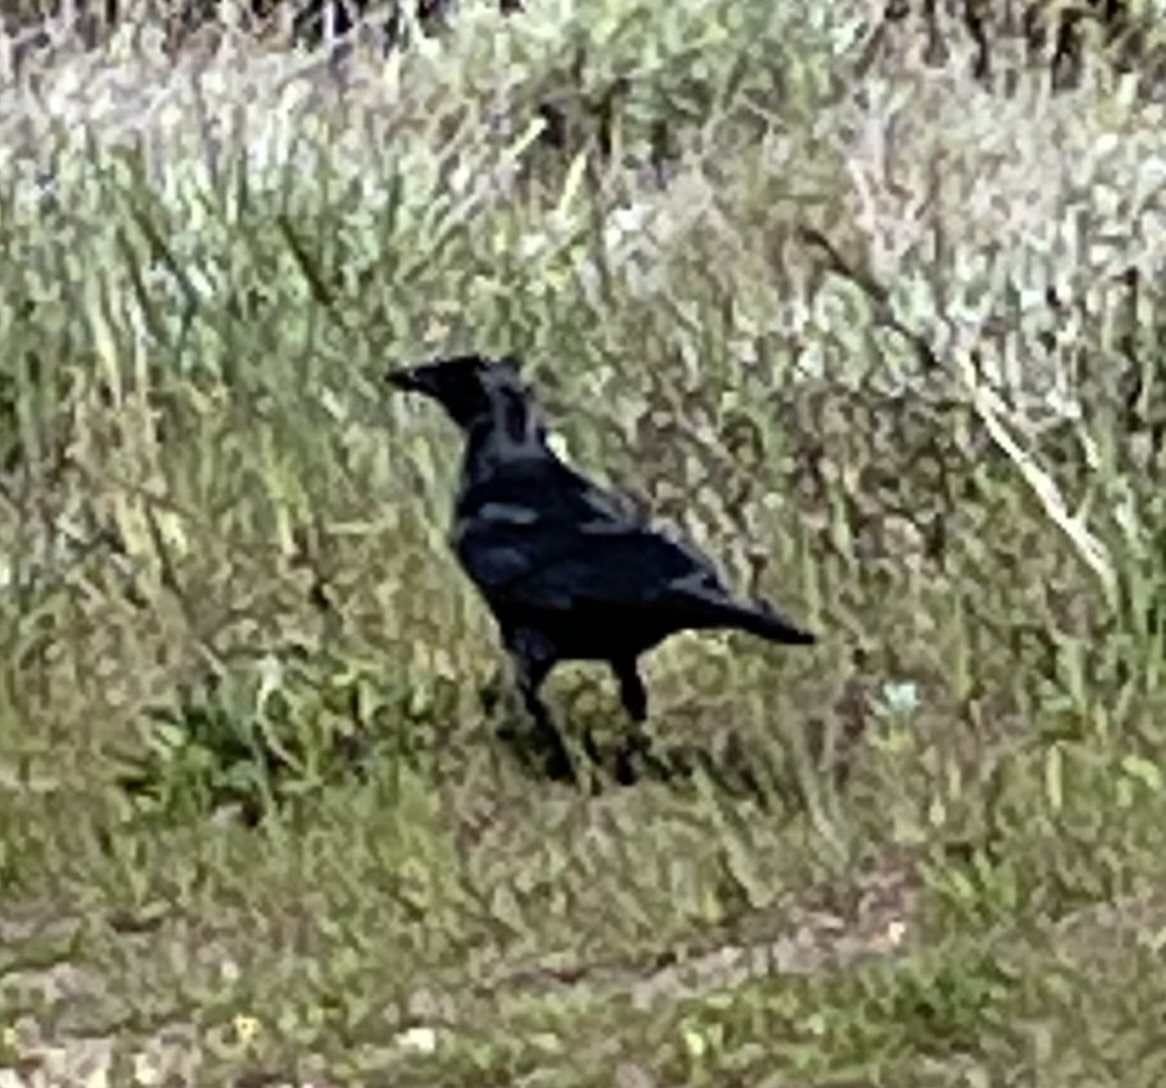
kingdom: Animalia
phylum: Chordata
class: Aves
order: Passeriformes
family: Corvidae
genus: Corvus
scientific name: Corvus corax
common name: Common raven
